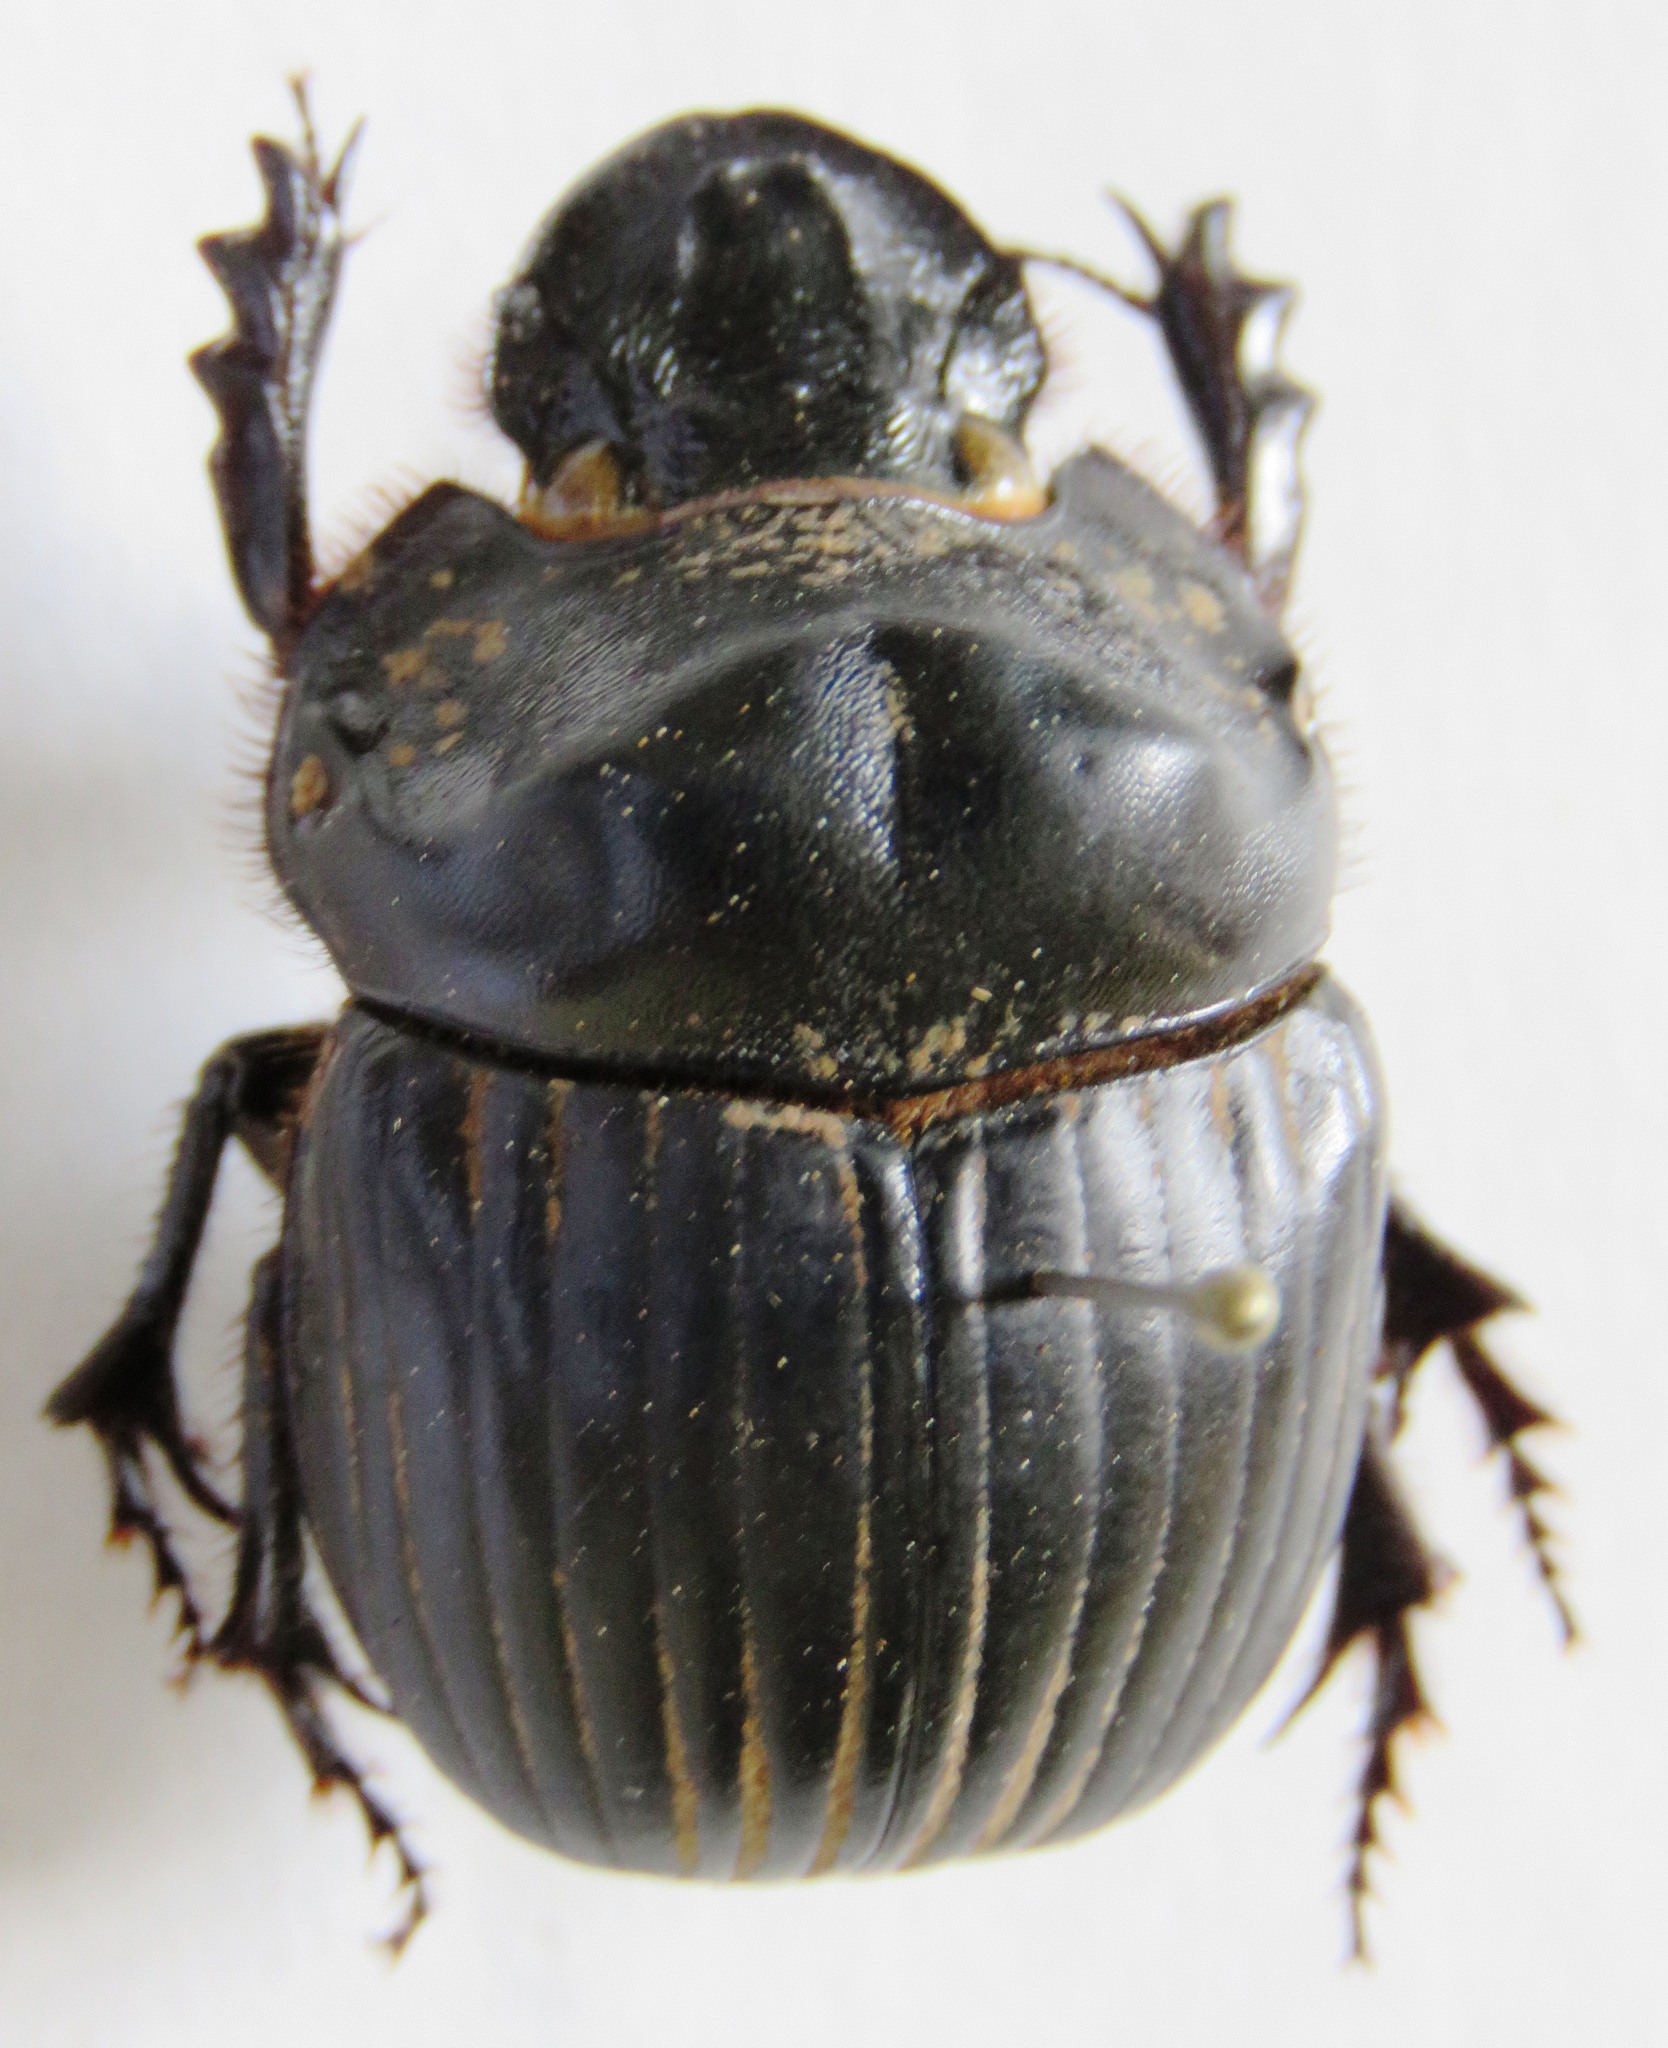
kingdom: Animalia
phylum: Arthropoda
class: Insecta
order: Coleoptera
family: Scarabaeidae
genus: Dichotomius
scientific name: Dichotomius annae
